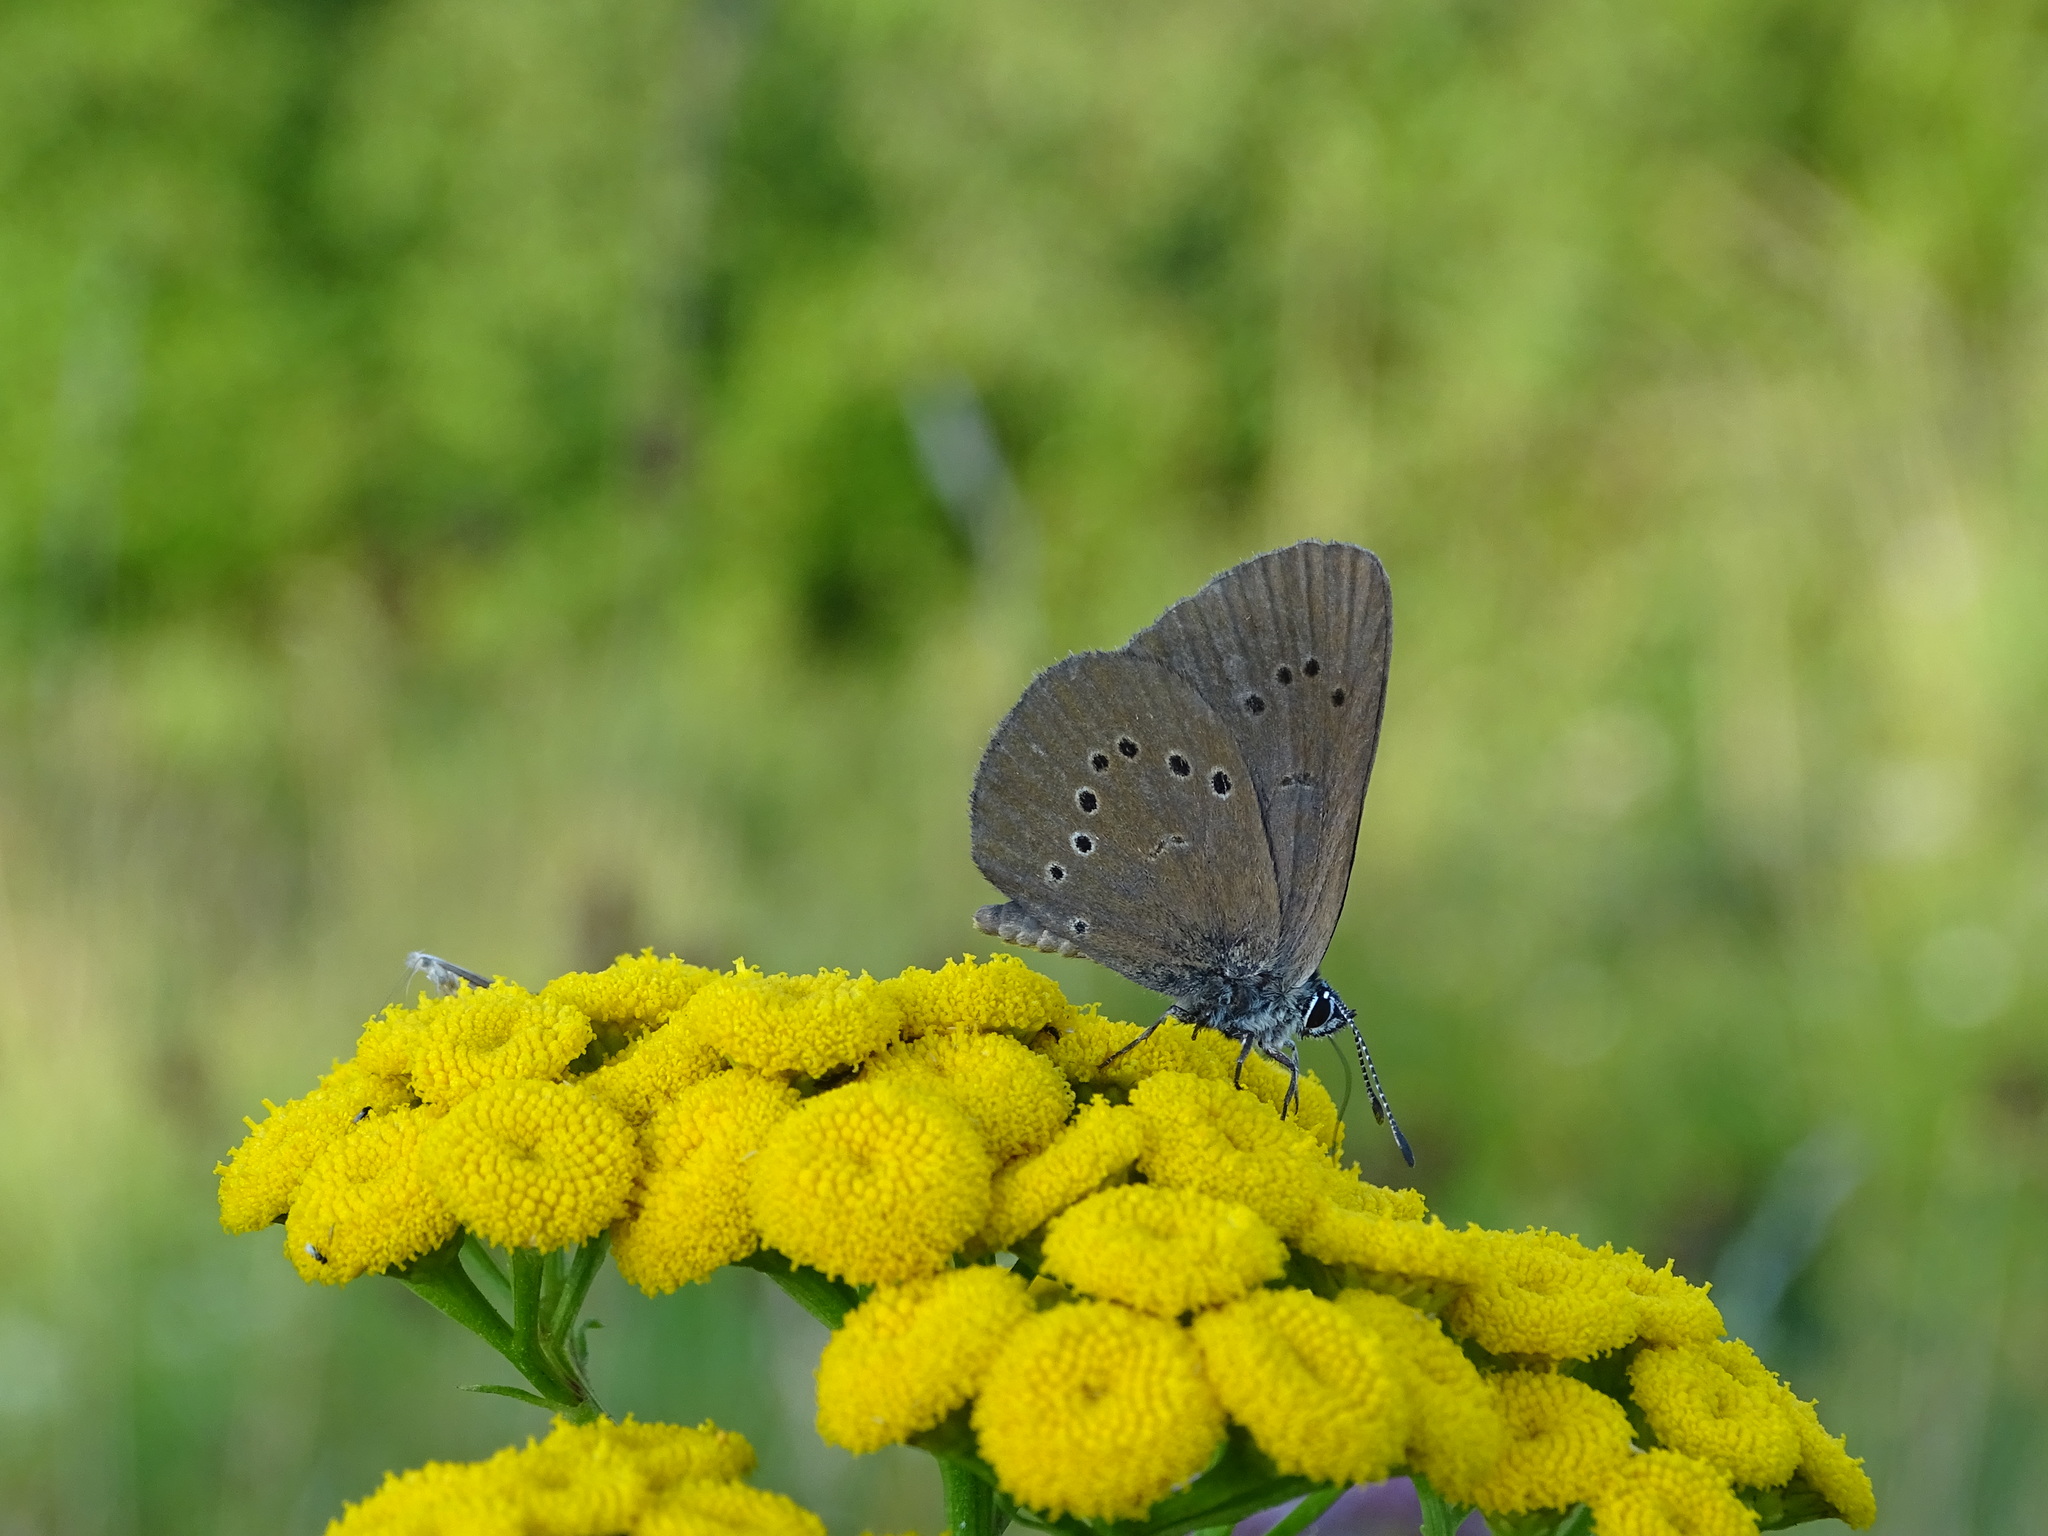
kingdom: Animalia
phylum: Arthropoda
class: Insecta
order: Lepidoptera
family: Lycaenidae
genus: Maculinea
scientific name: Maculinea nausithous
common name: Dusky large blue
